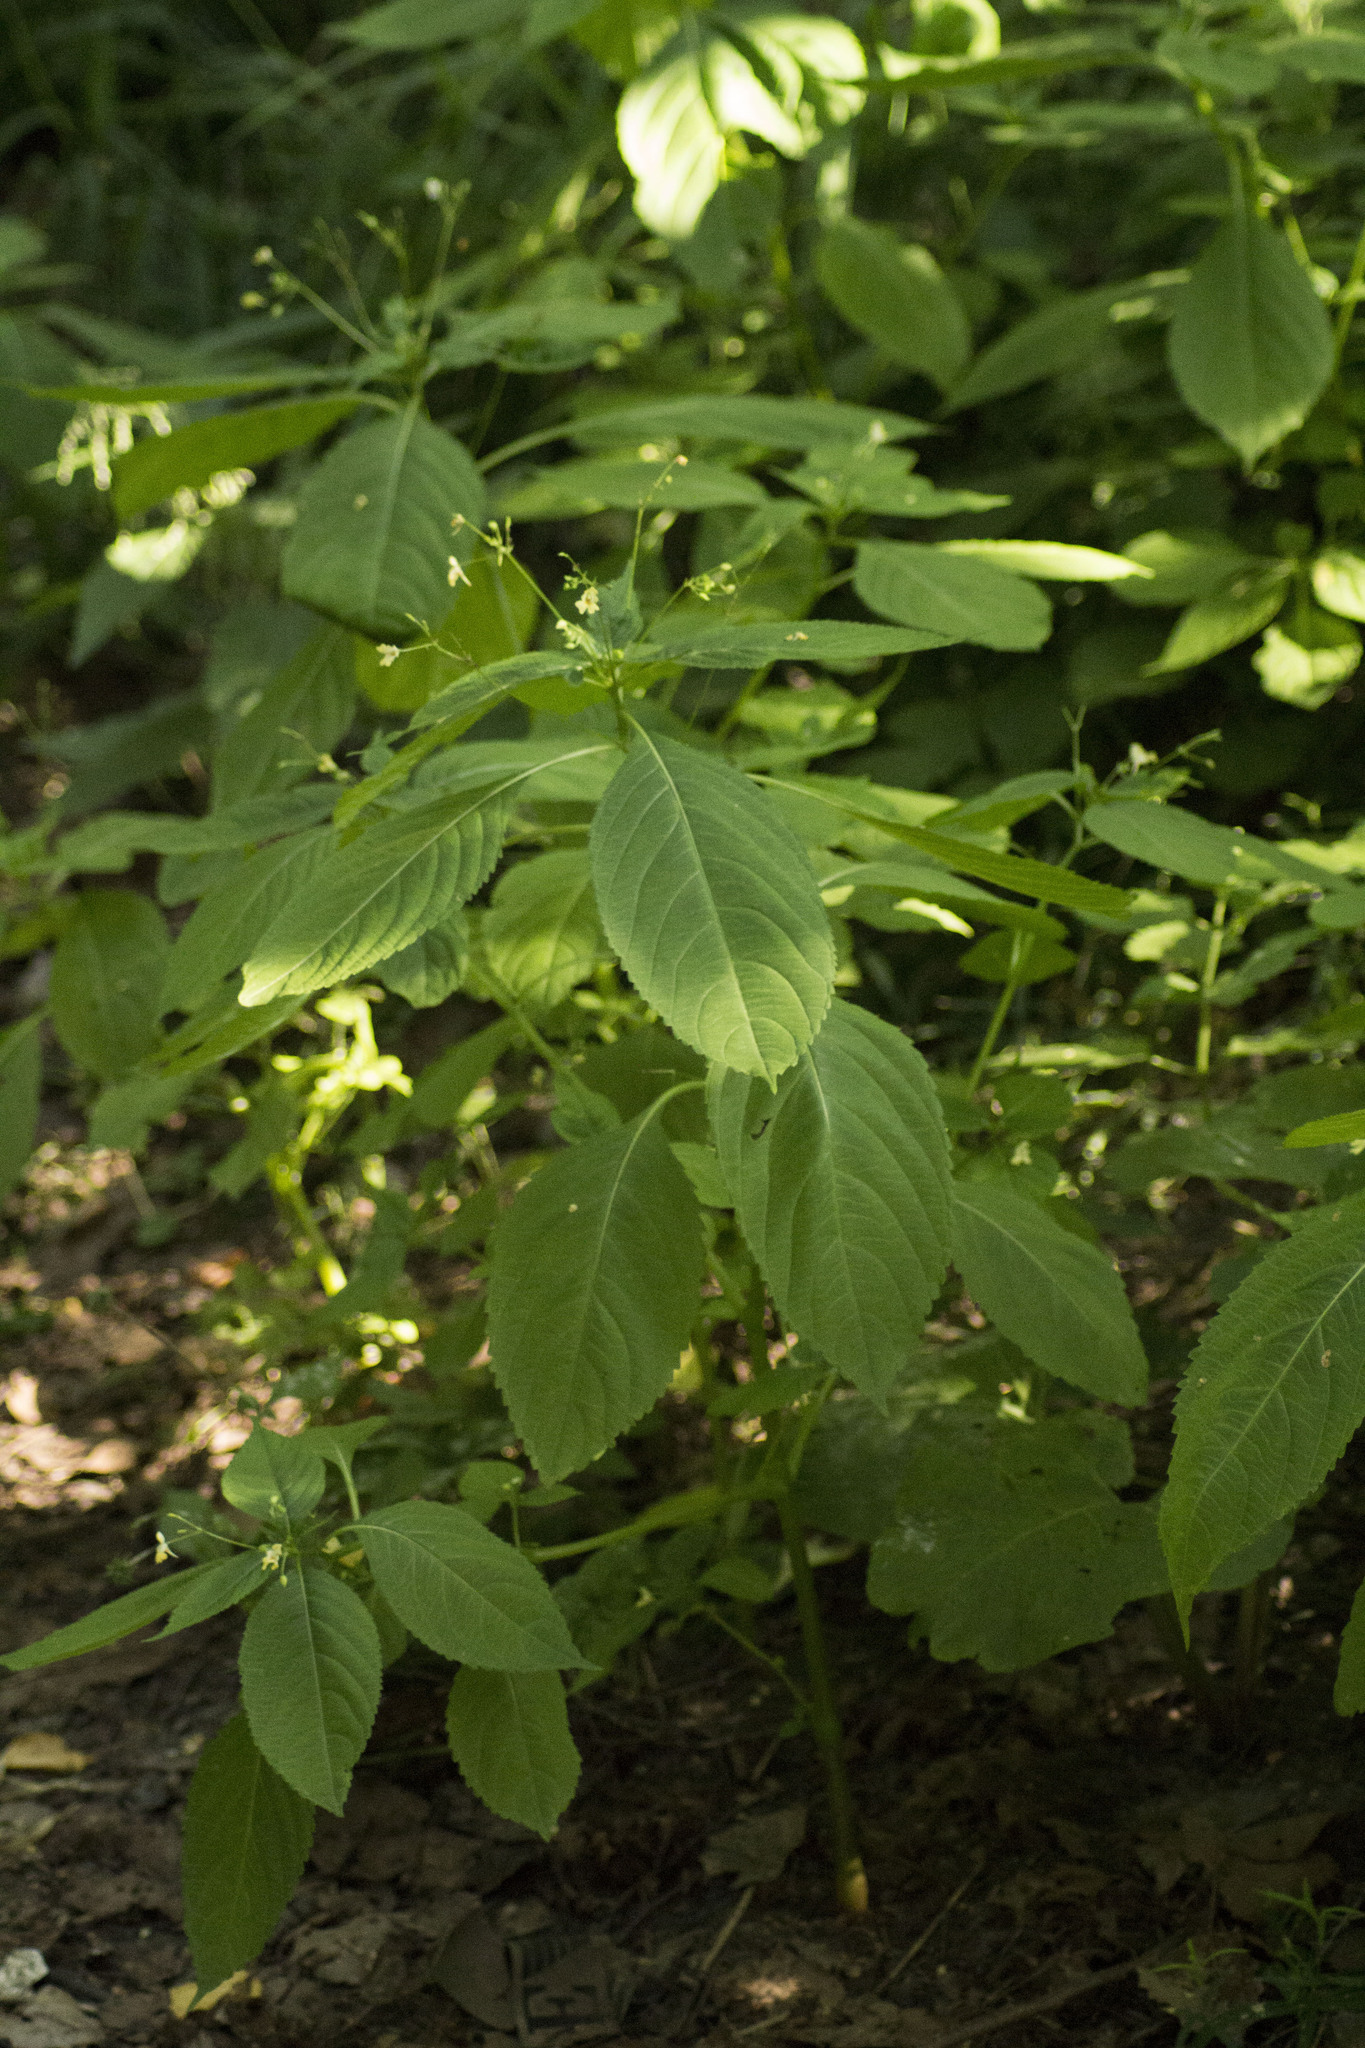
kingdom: Plantae
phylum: Tracheophyta
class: Magnoliopsida
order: Ericales
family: Balsaminaceae
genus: Impatiens
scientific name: Impatiens parviflora
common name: Small balsam
